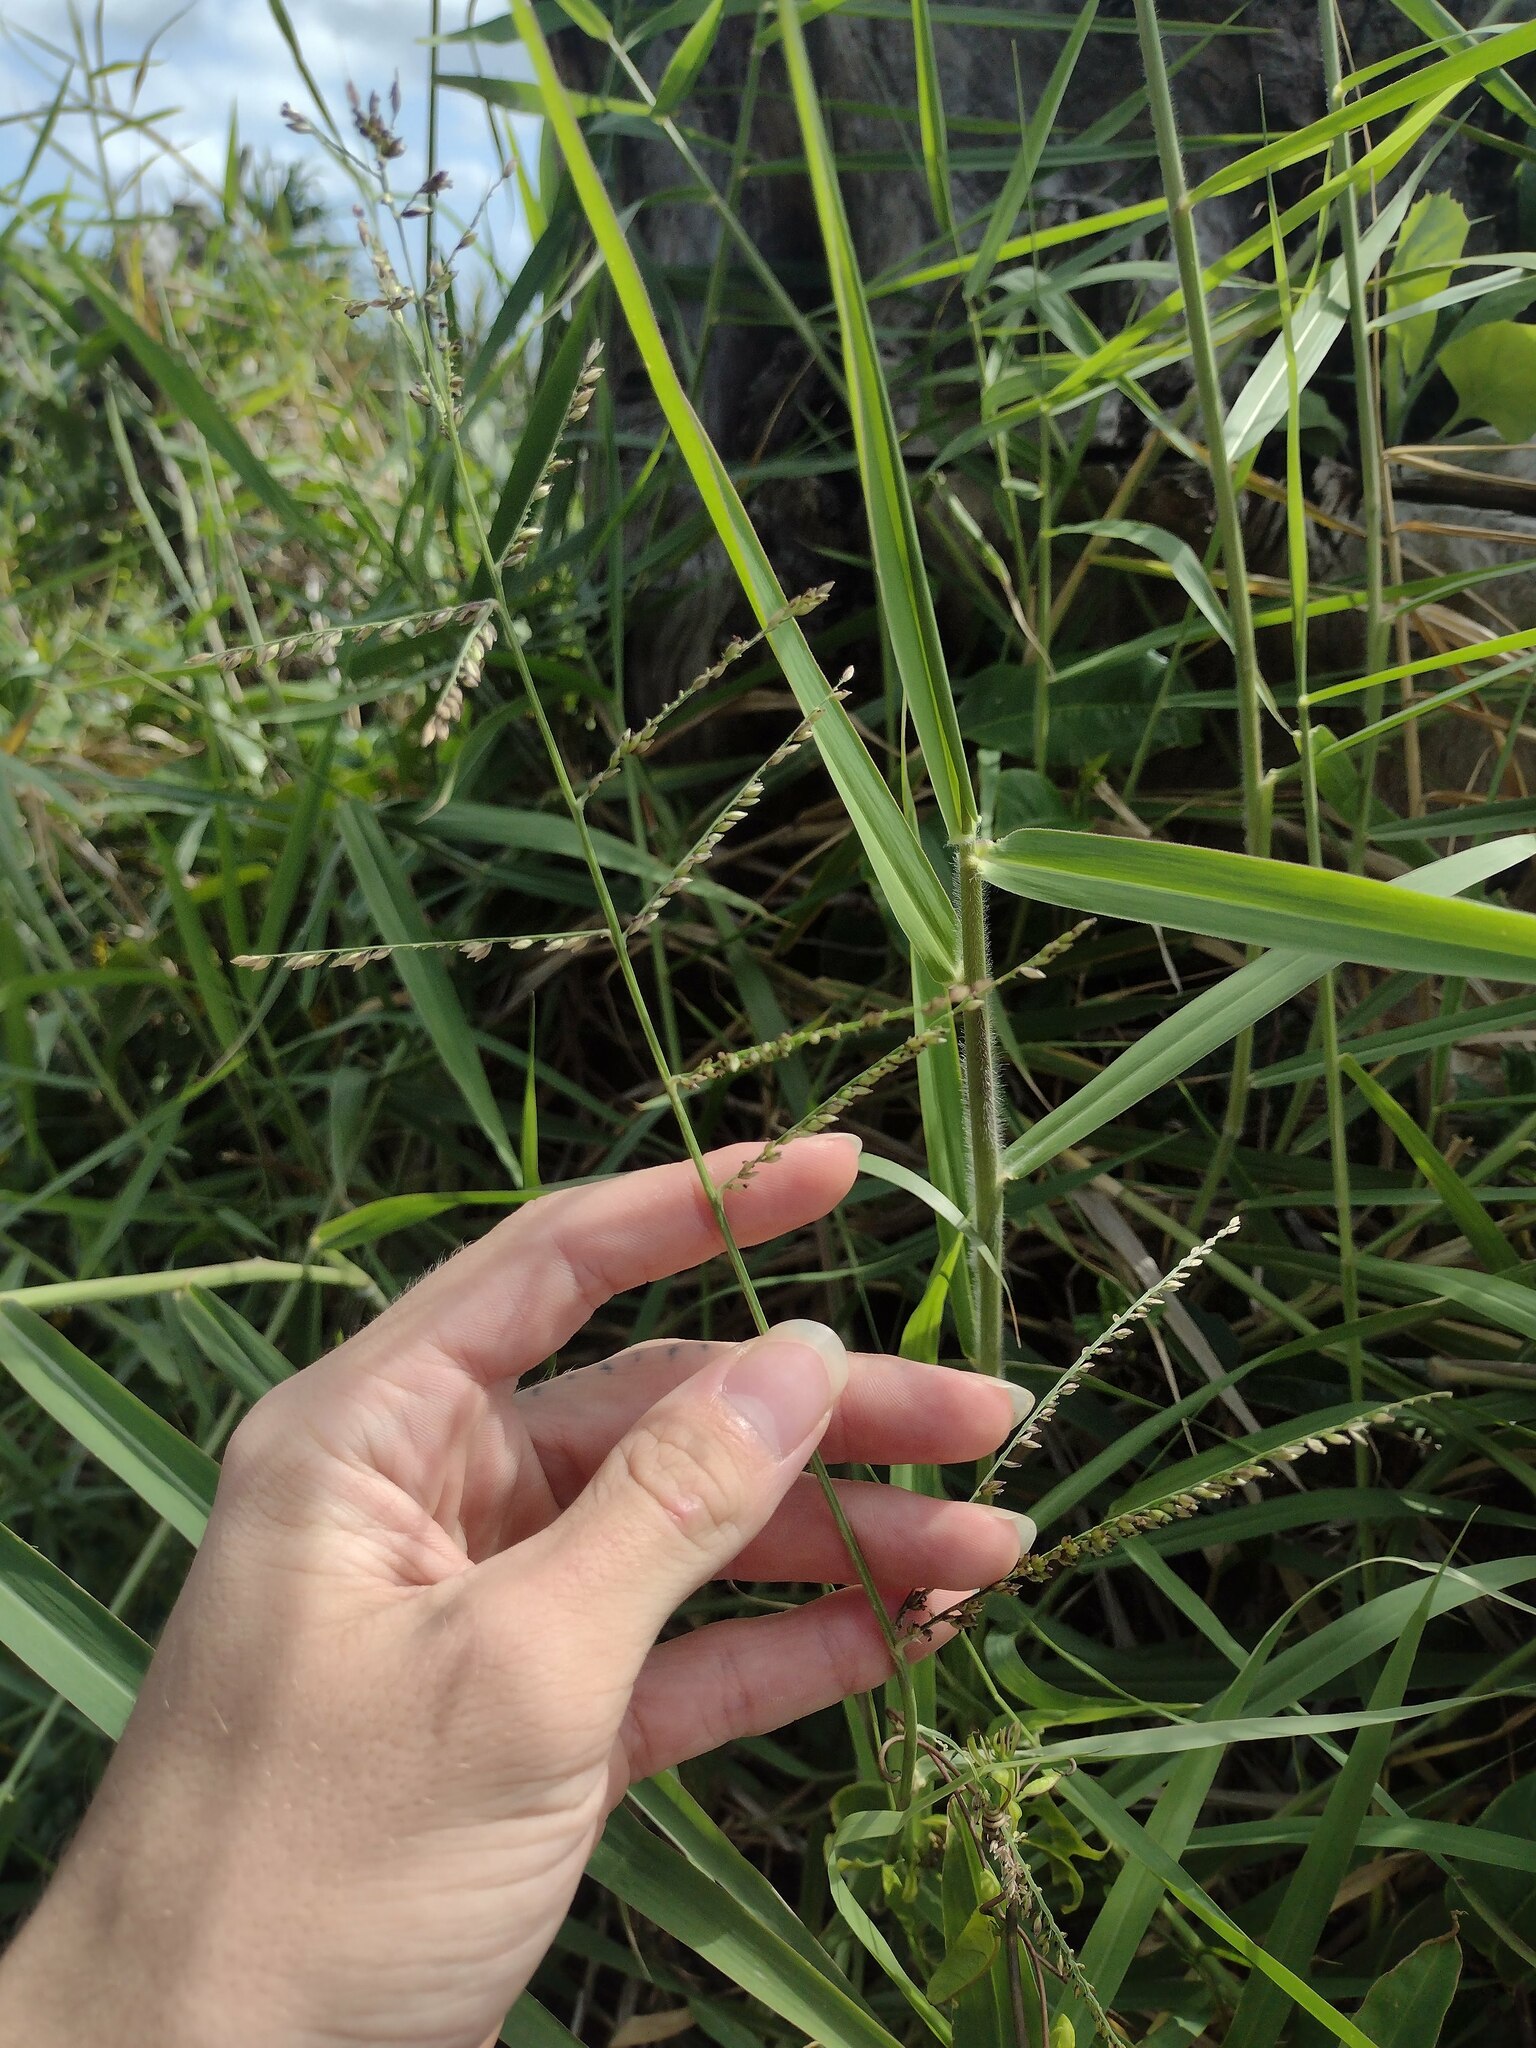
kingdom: Plantae
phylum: Tracheophyta
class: Liliopsida
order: Poales
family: Poaceae
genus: Urochloa
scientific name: Urochloa mutica
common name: Para grass
